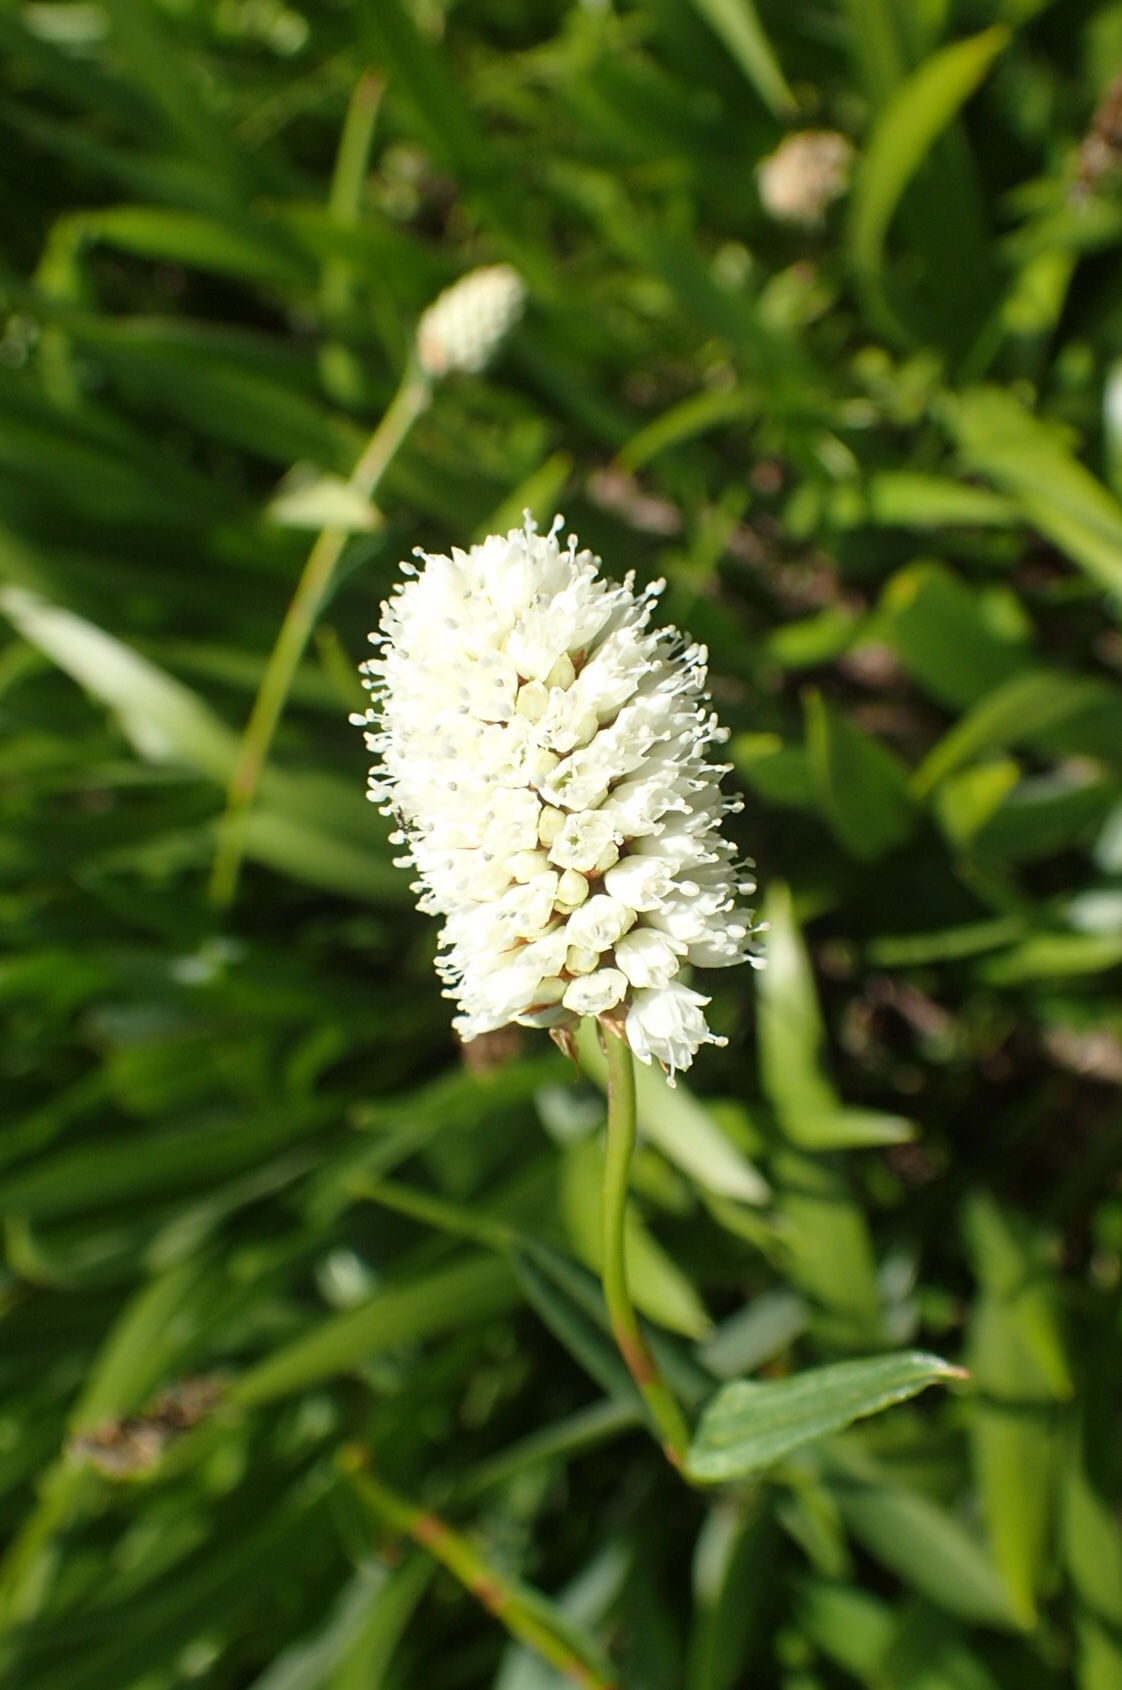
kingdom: Plantae
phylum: Tracheophyta
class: Magnoliopsida
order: Caryophyllales
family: Polygonaceae
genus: Bistorta
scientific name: Bistorta bistortoides
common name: American bistort
